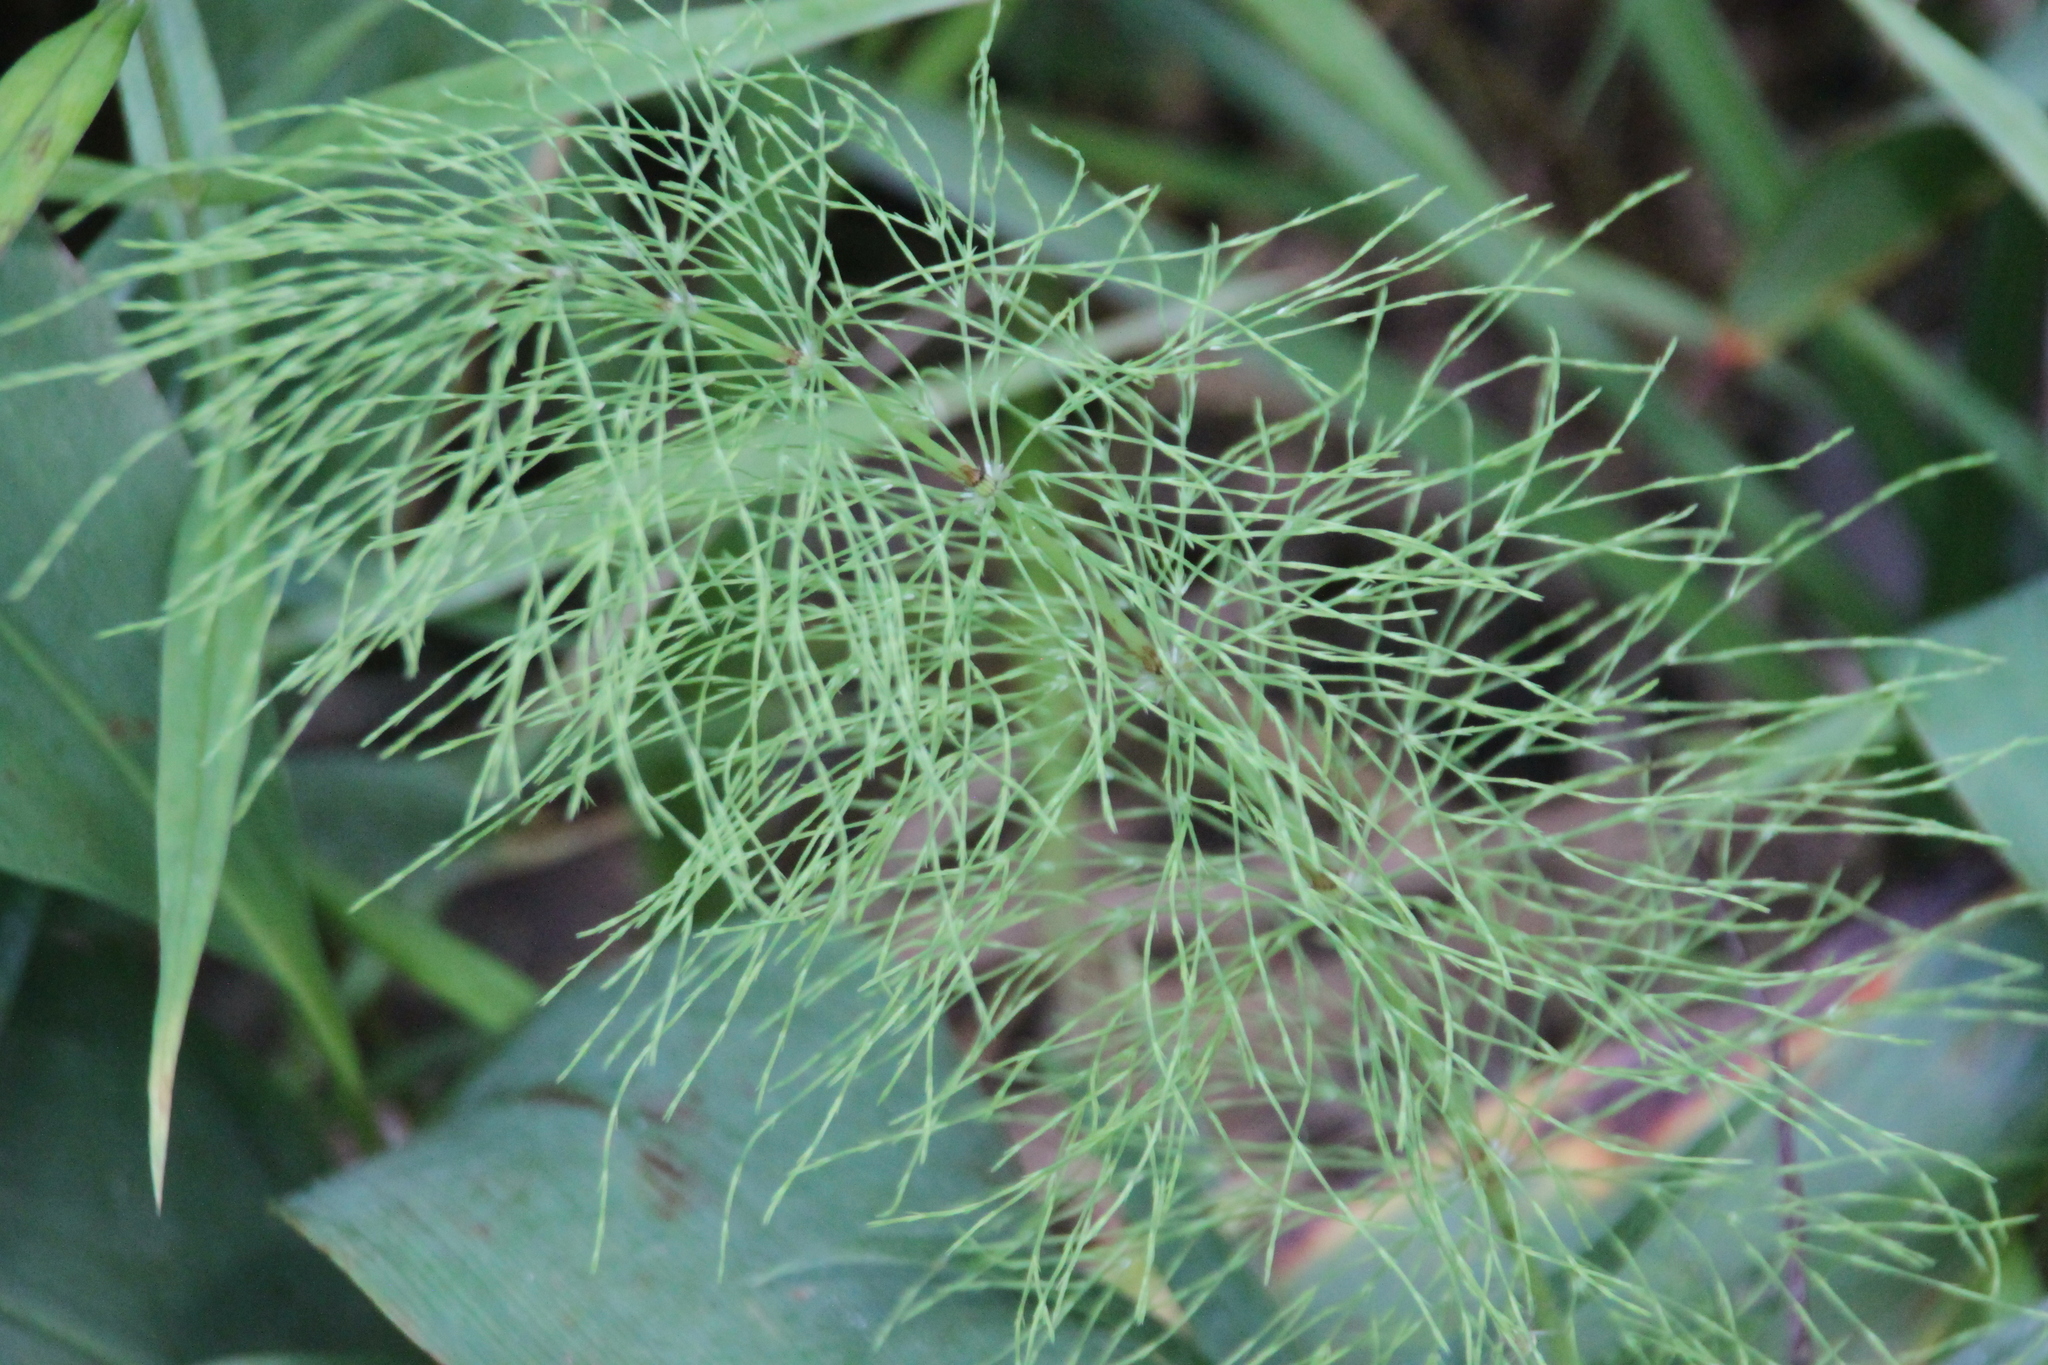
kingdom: Plantae
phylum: Tracheophyta
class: Polypodiopsida
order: Equisetales
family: Equisetaceae
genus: Equisetum
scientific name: Equisetum sylvaticum
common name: Wood horsetail
